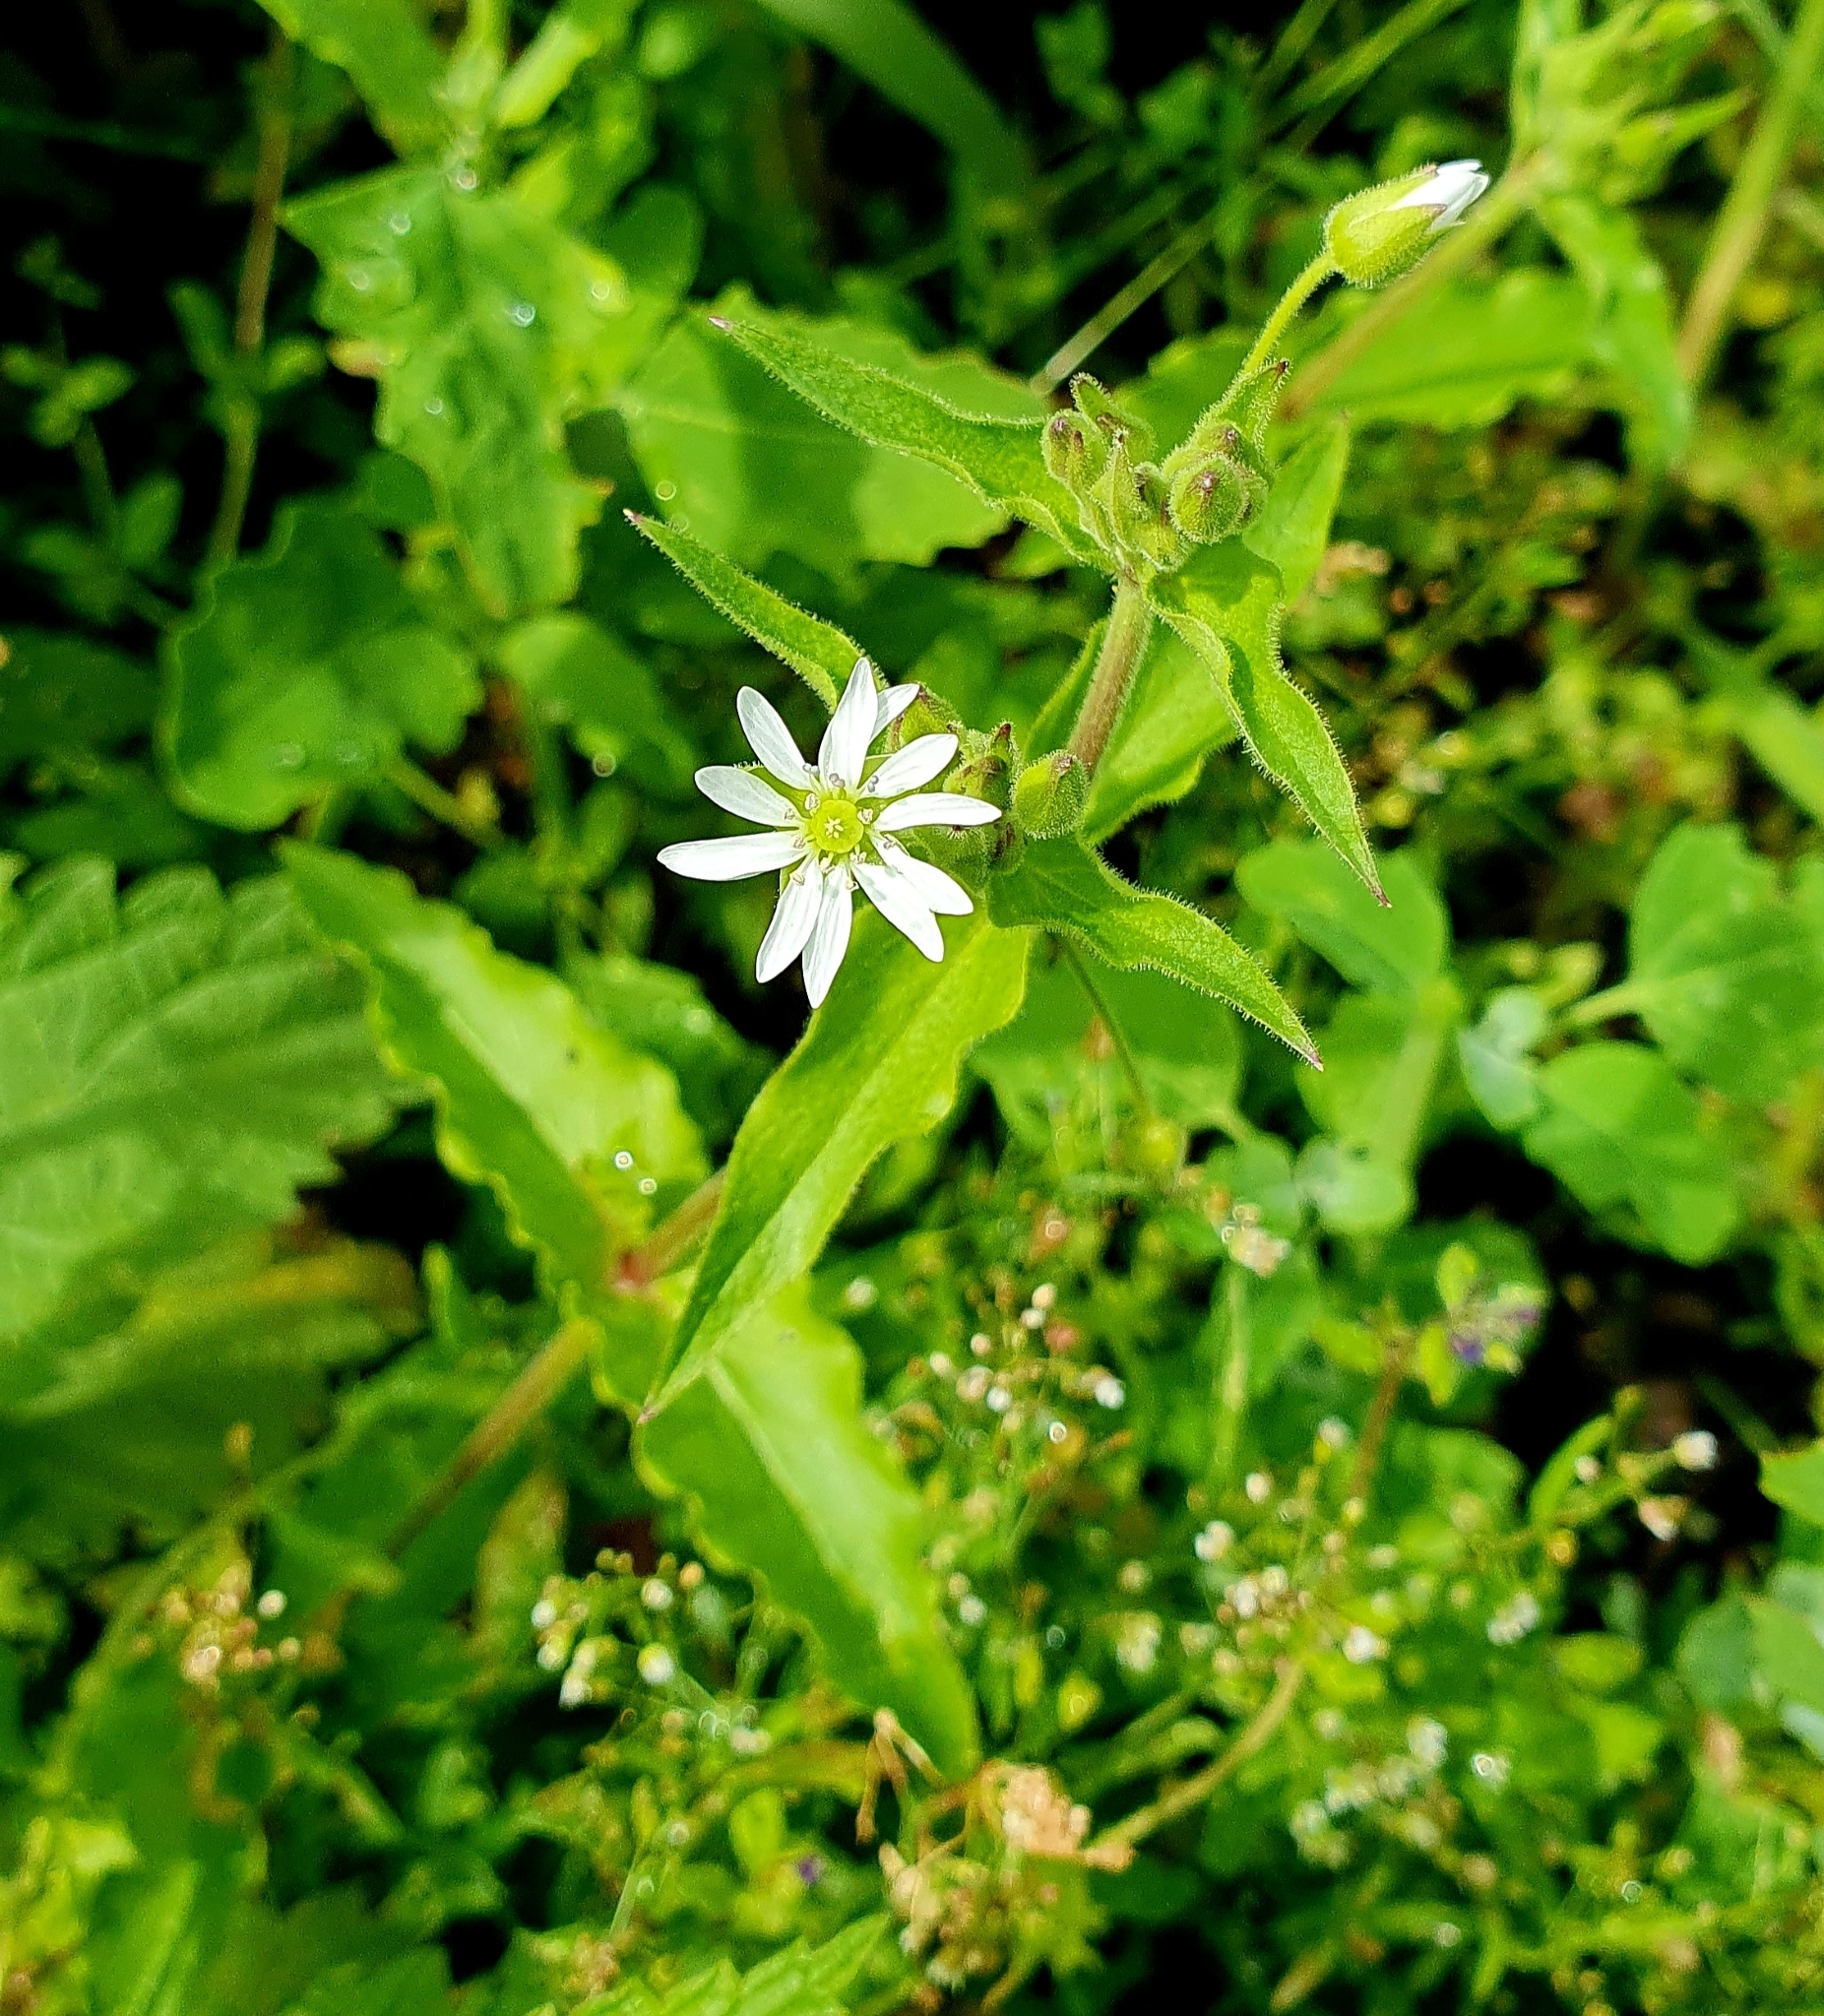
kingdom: Plantae
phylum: Tracheophyta
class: Magnoliopsida
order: Caryophyllales
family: Caryophyllaceae
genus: Stellaria
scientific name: Stellaria aquatica
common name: Water chickweed
